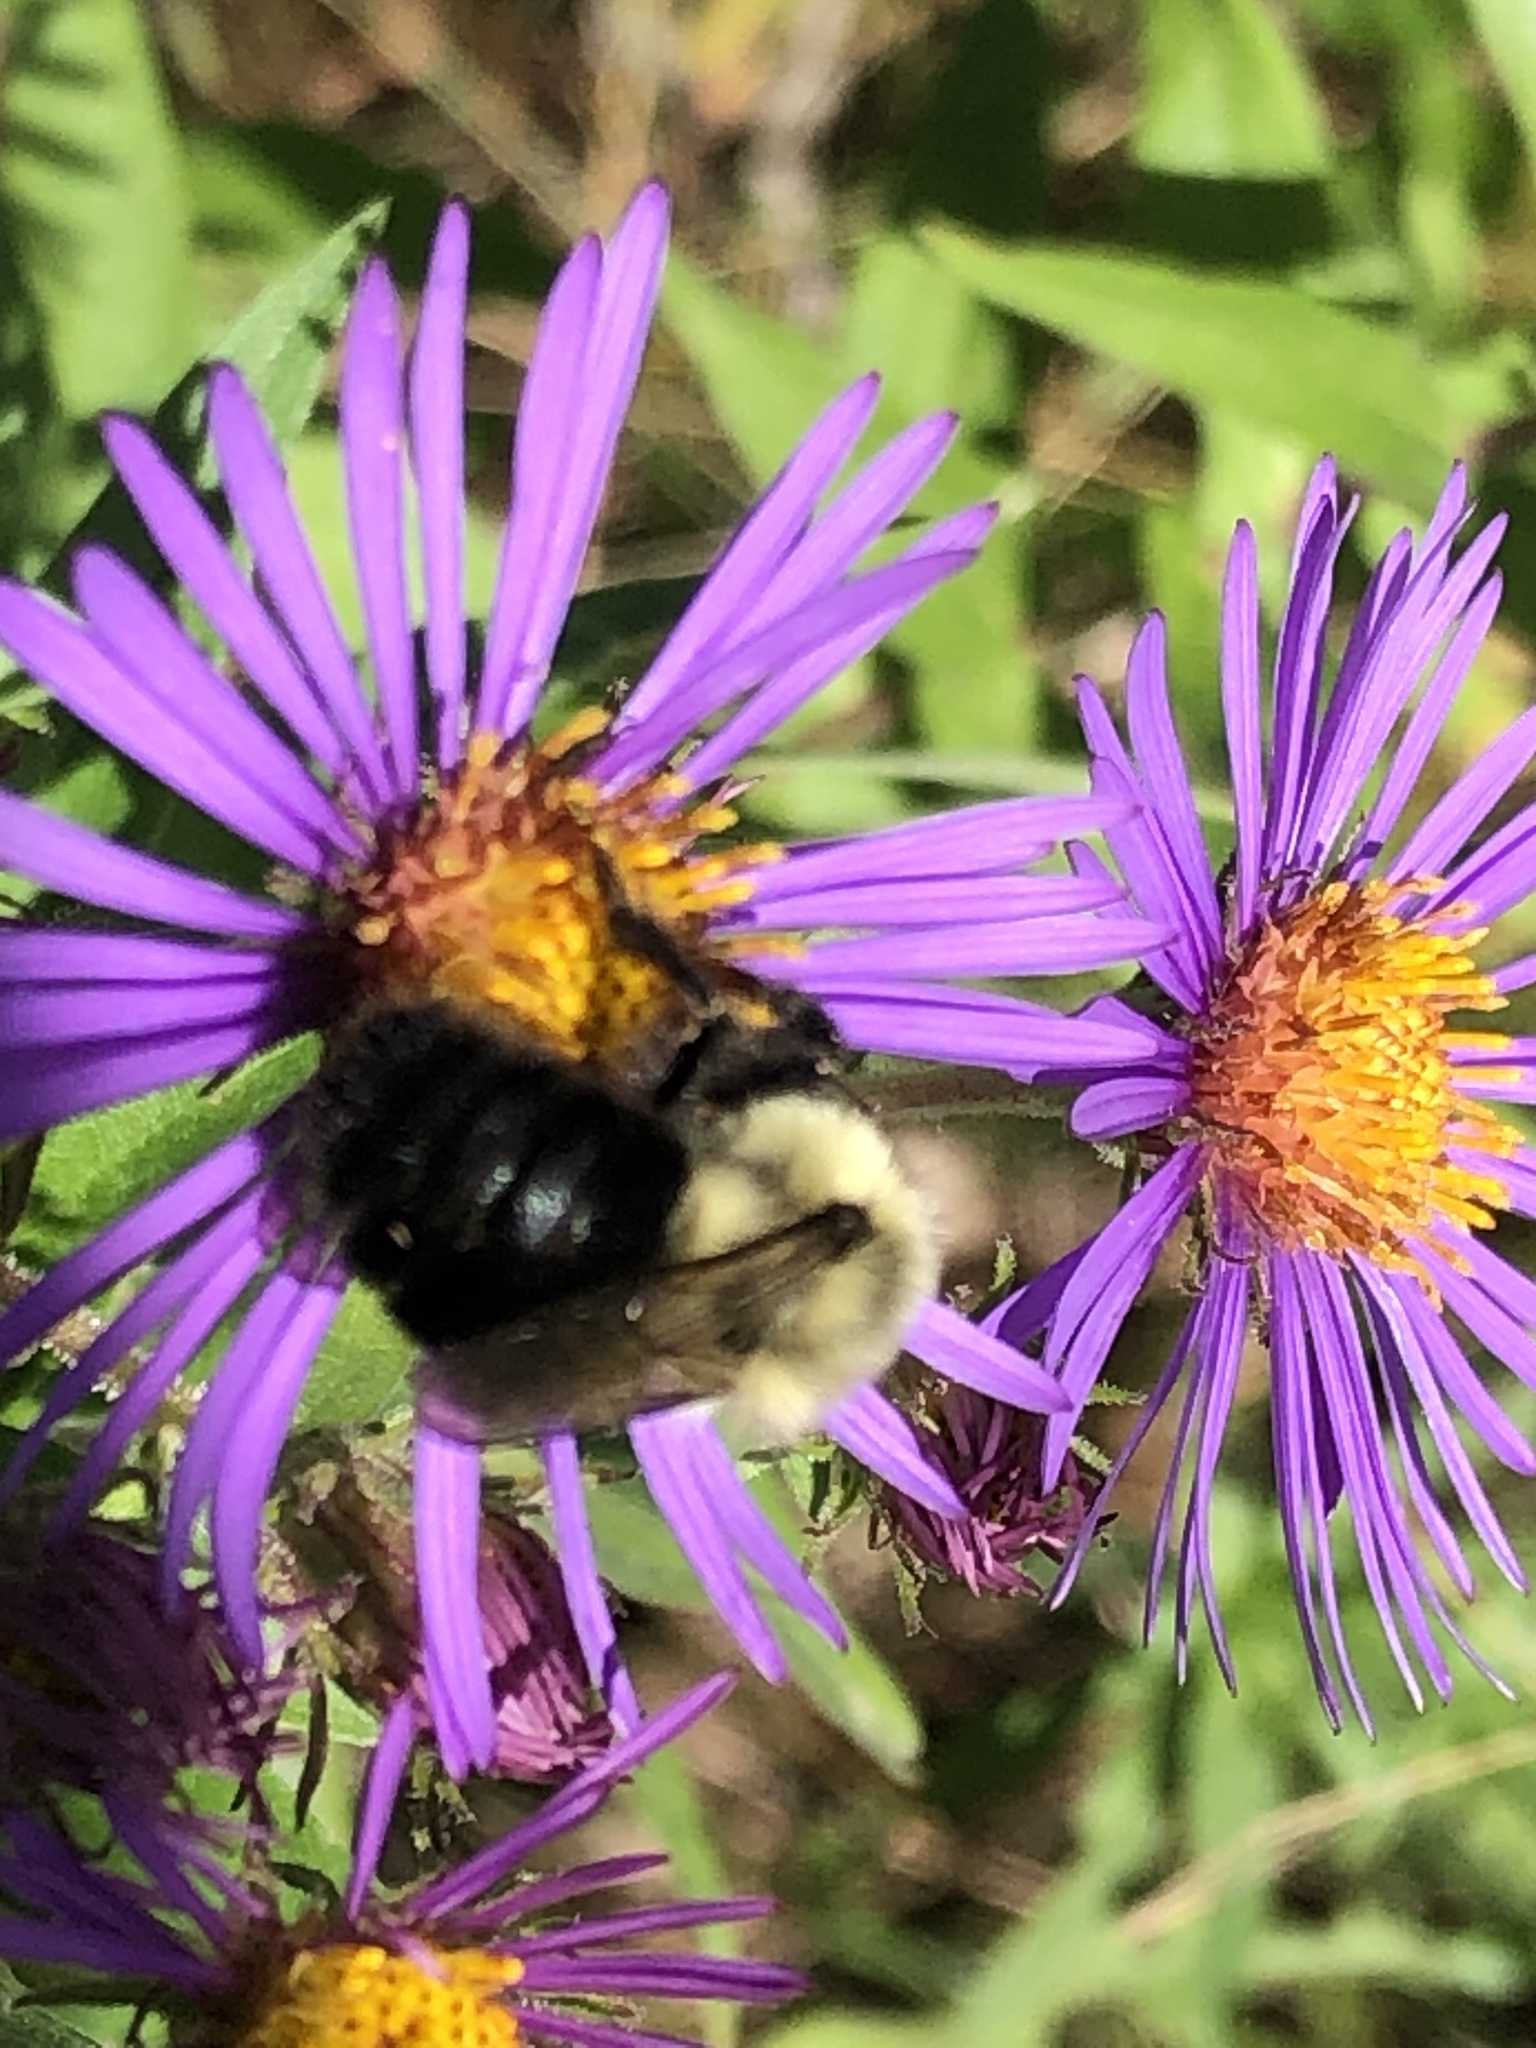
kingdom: Animalia
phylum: Arthropoda
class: Insecta
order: Hymenoptera
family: Apidae
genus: Bombus
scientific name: Bombus impatiens
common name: Common eastern bumble bee
